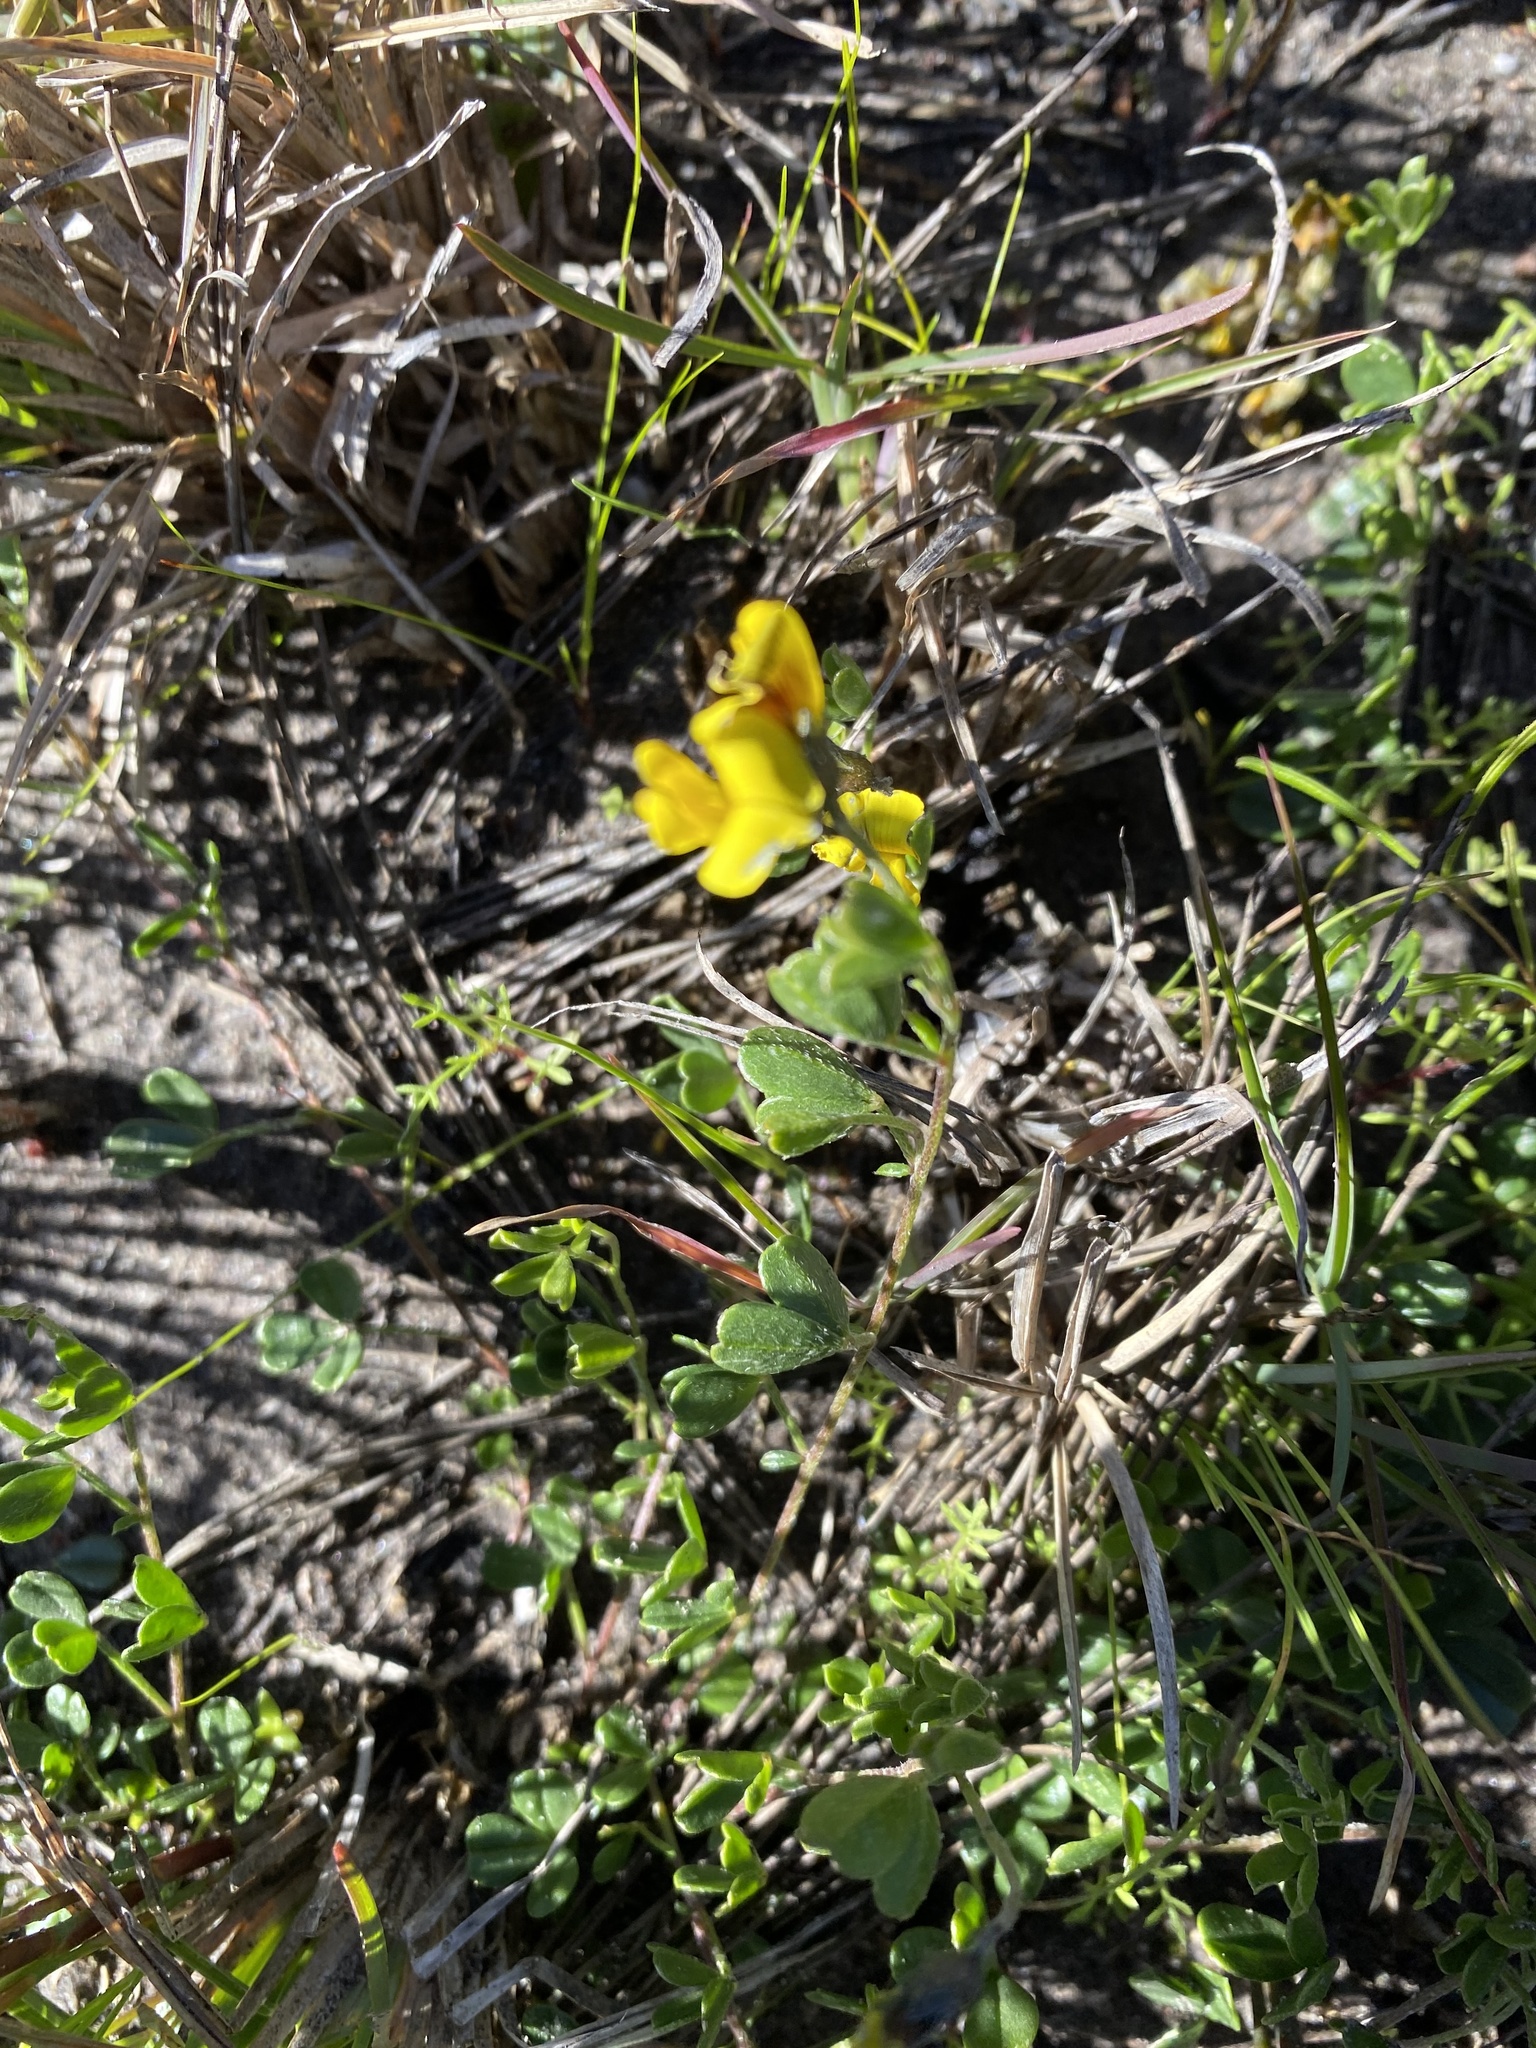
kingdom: Plantae
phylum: Tracheophyta
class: Magnoliopsida
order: Fabales
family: Fabaceae
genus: Lotononis
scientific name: Lotononis umbellata
